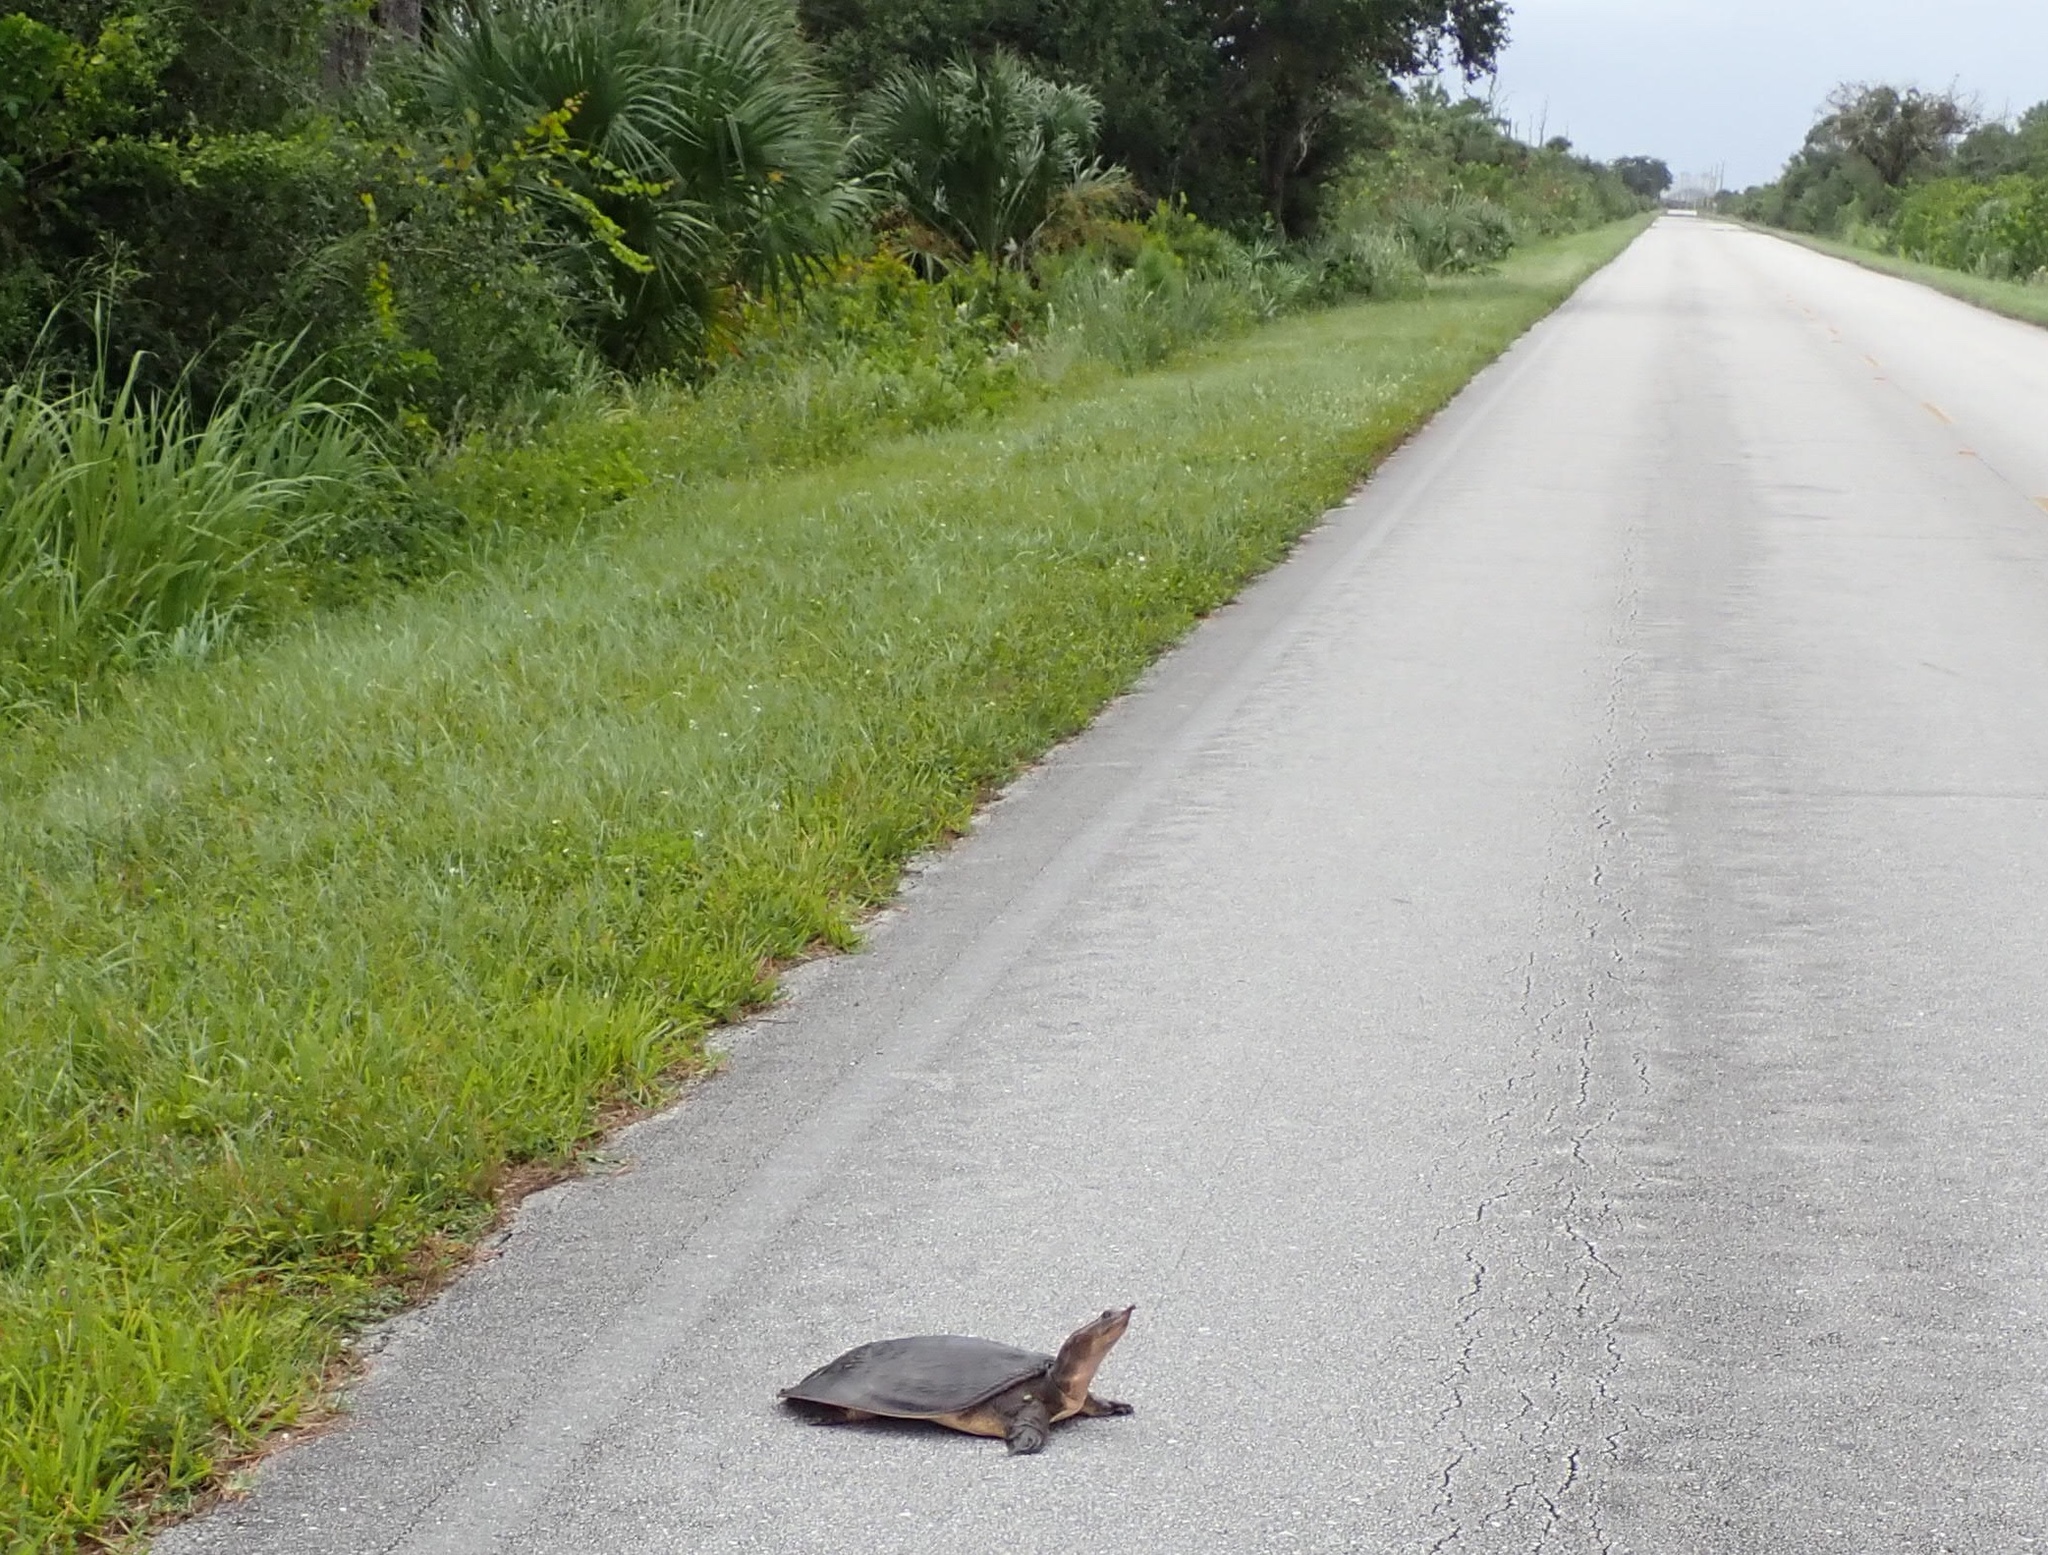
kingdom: Animalia
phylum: Chordata
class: Testudines
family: Trionychidae
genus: Apalone
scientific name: Apalone ferox
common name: Florida softshell turtle
